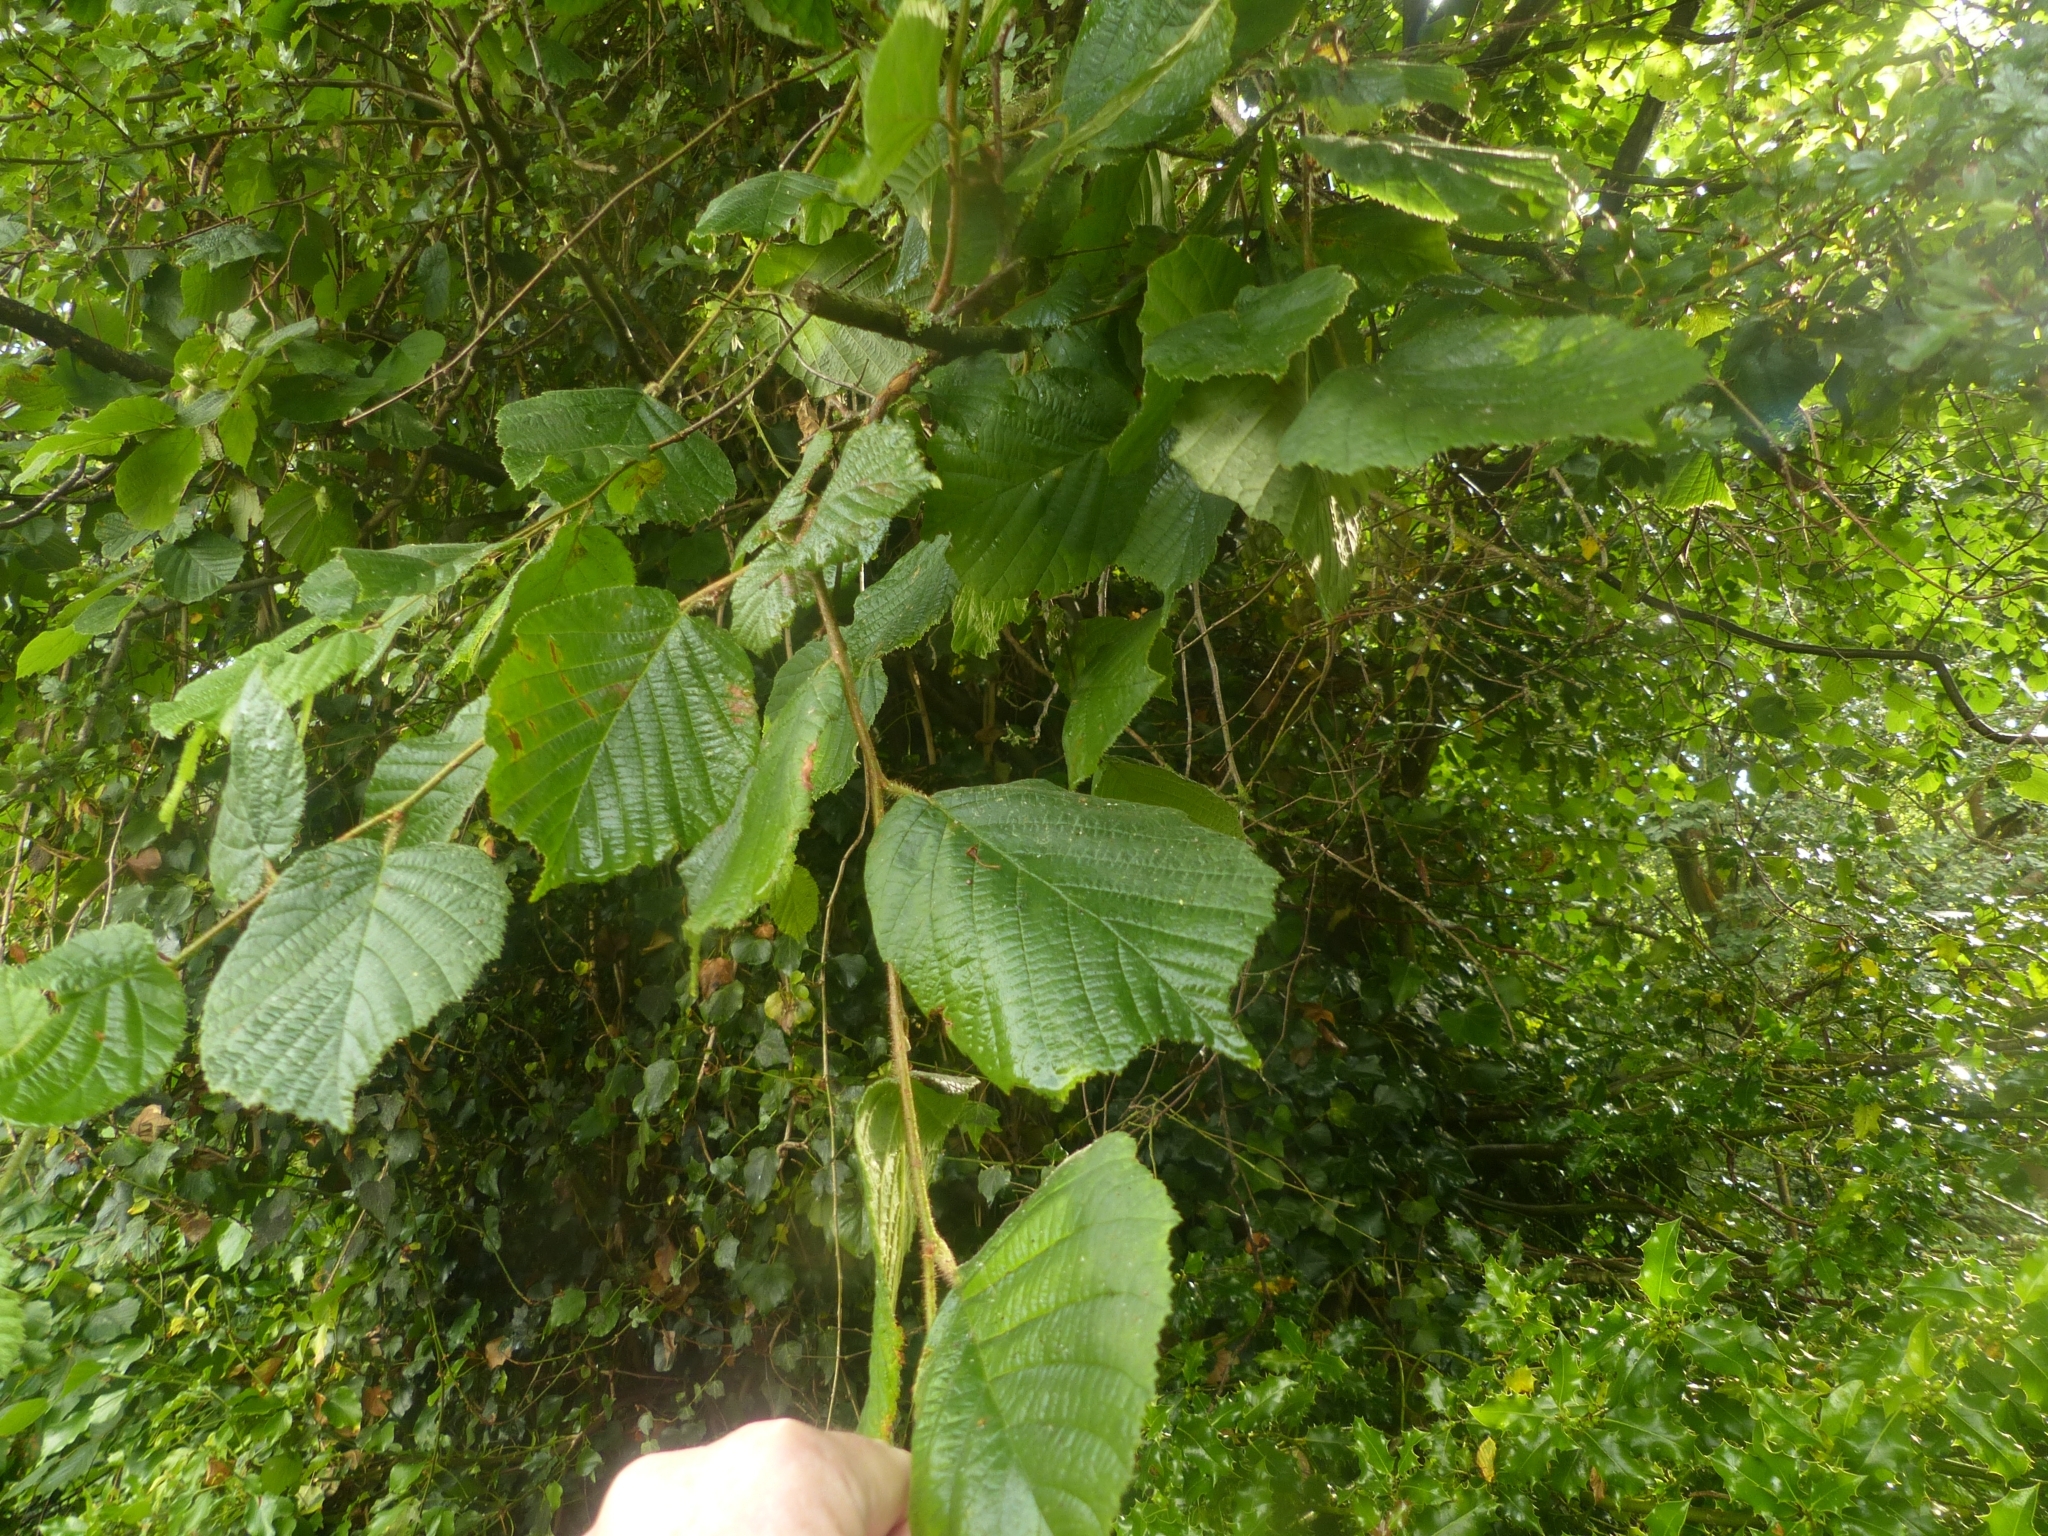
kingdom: Plantae
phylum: Tracheophyta
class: Magnoliopsida
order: Fagales
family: Betulaceae
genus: Corylus
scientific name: Corylus avellana
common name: European hazel
